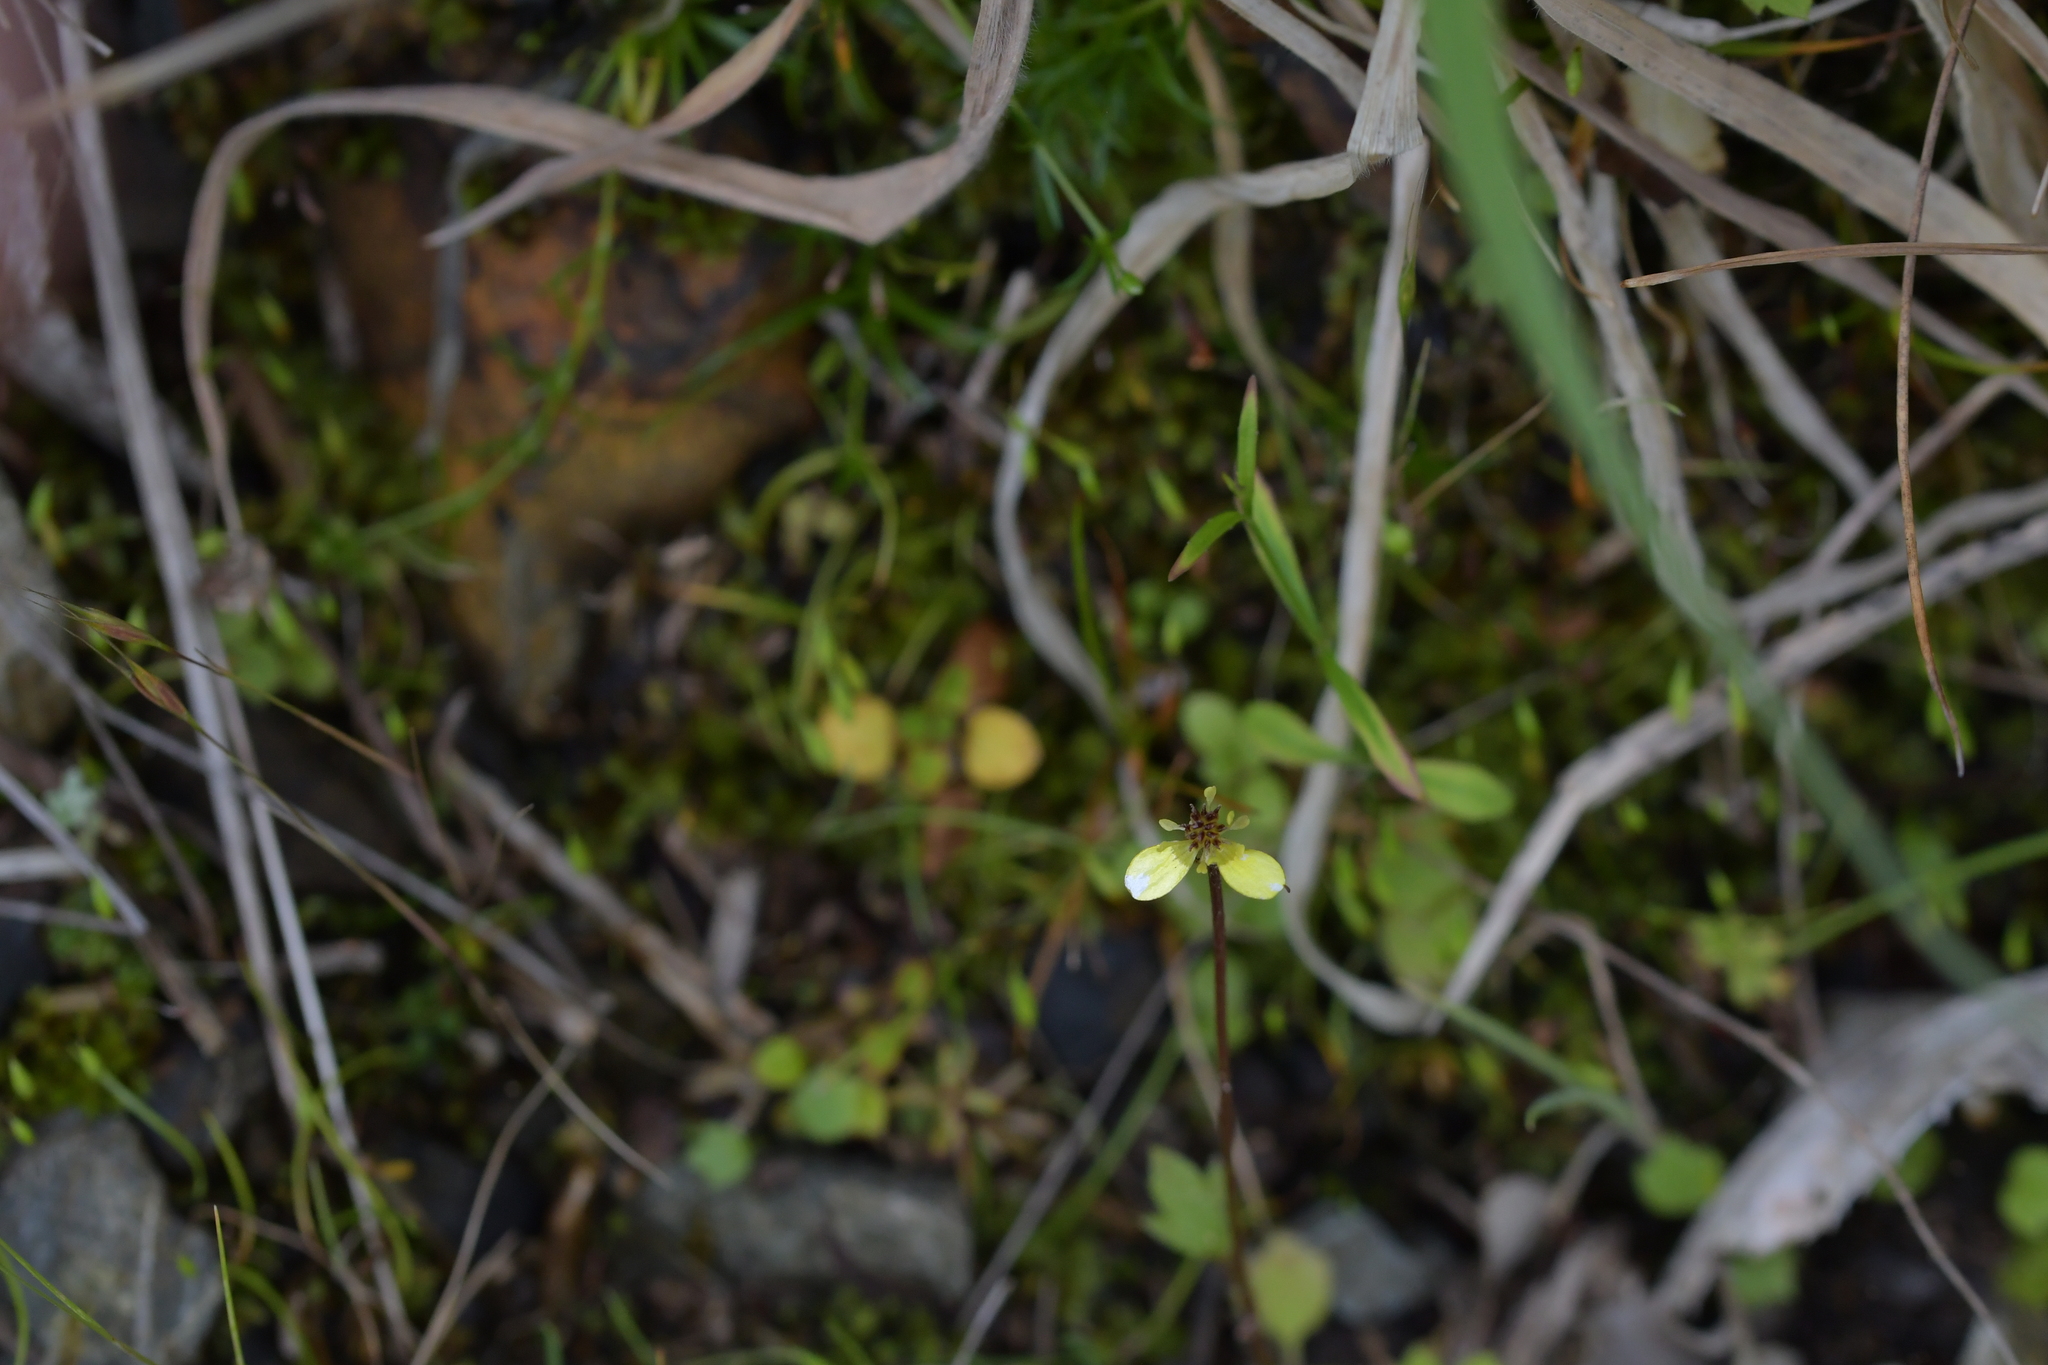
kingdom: Plantae
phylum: Tracheophyta
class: Magnoliopsida
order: Ranunculales
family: Ranunculaceae
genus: Ranunculus
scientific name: Ranunculus reflexus
